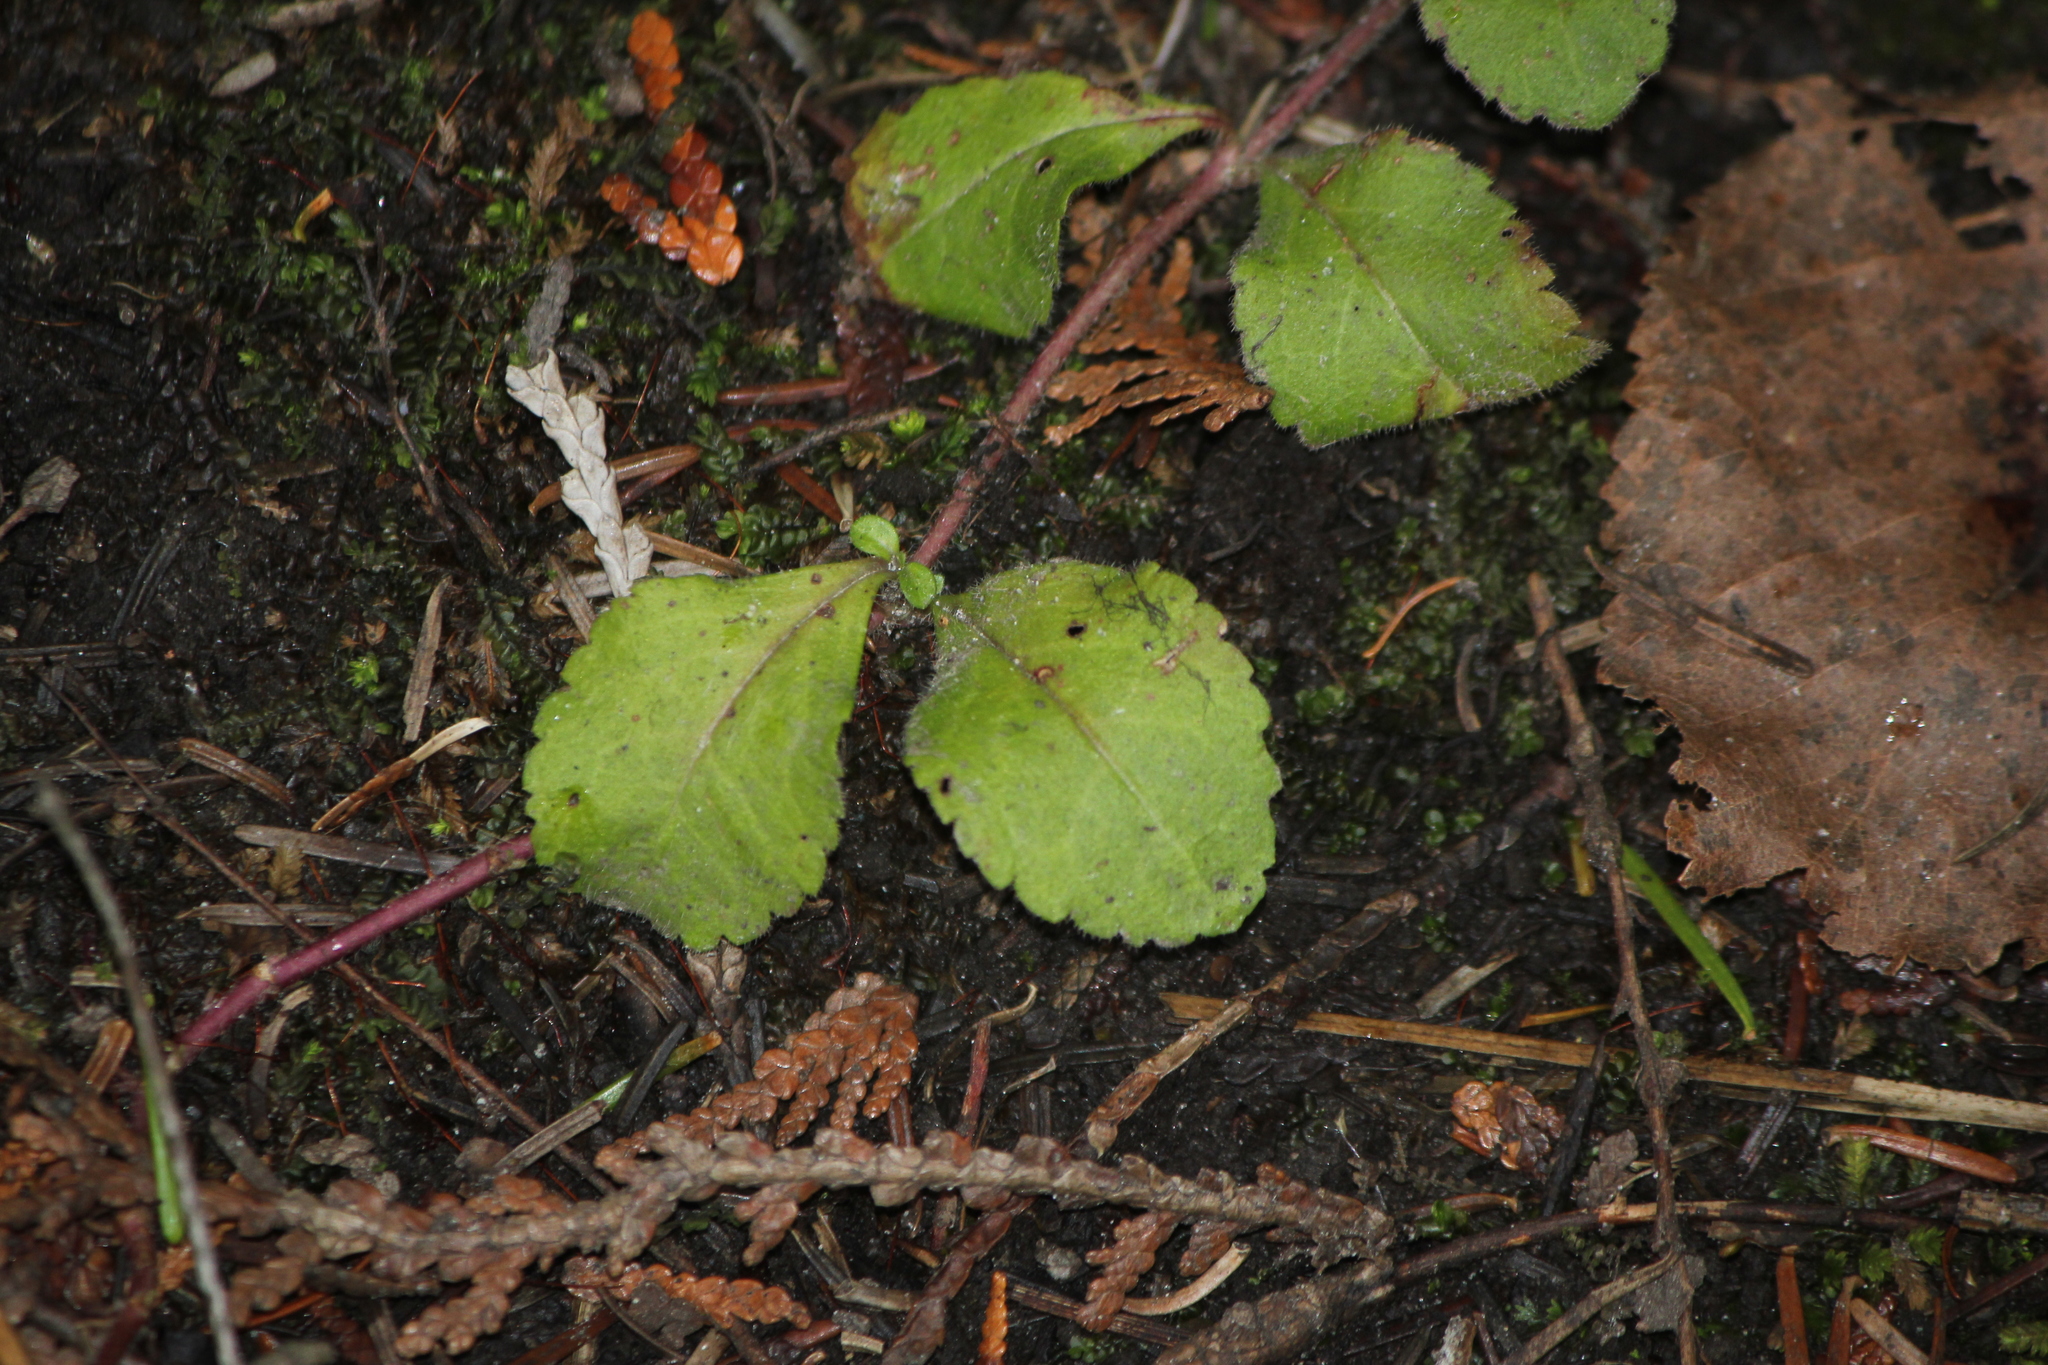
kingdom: Plantae
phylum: Tracheophyta
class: Magnoliopsida
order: Lamiales
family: Plantaginaceae
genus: Veronica
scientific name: Veronica officinalis
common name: Common speedwell
